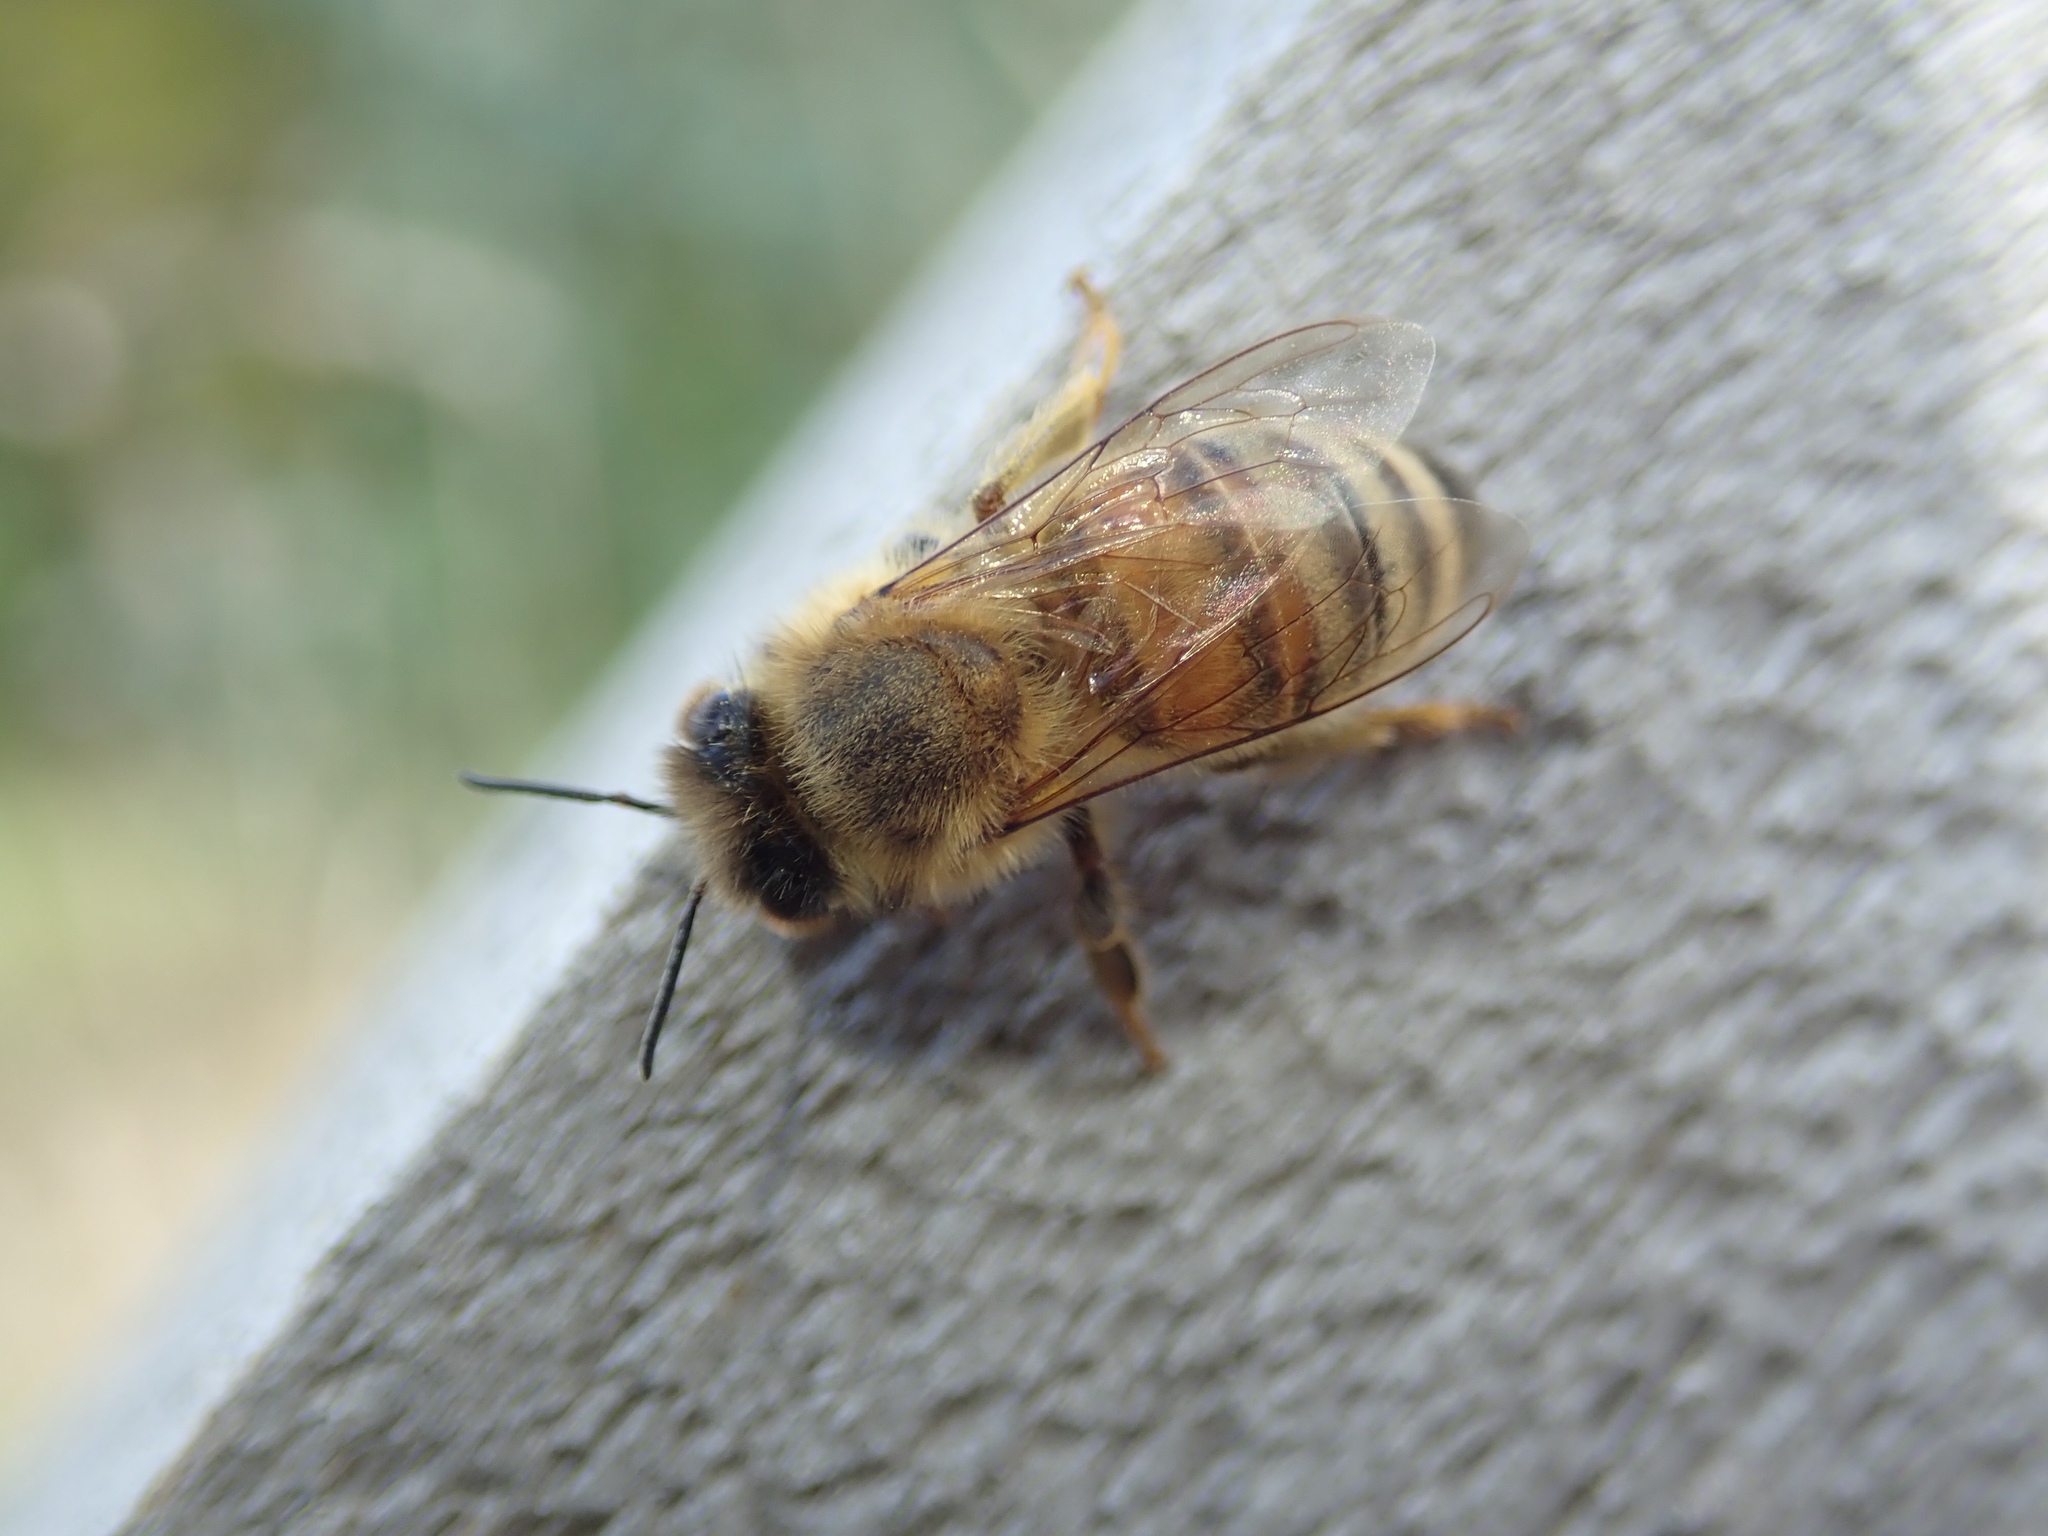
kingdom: Animalia
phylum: Arthropoda
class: Insecta
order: Hymenoptera
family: Apidae
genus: Apis
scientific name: Apis mellifera
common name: Honey bee
